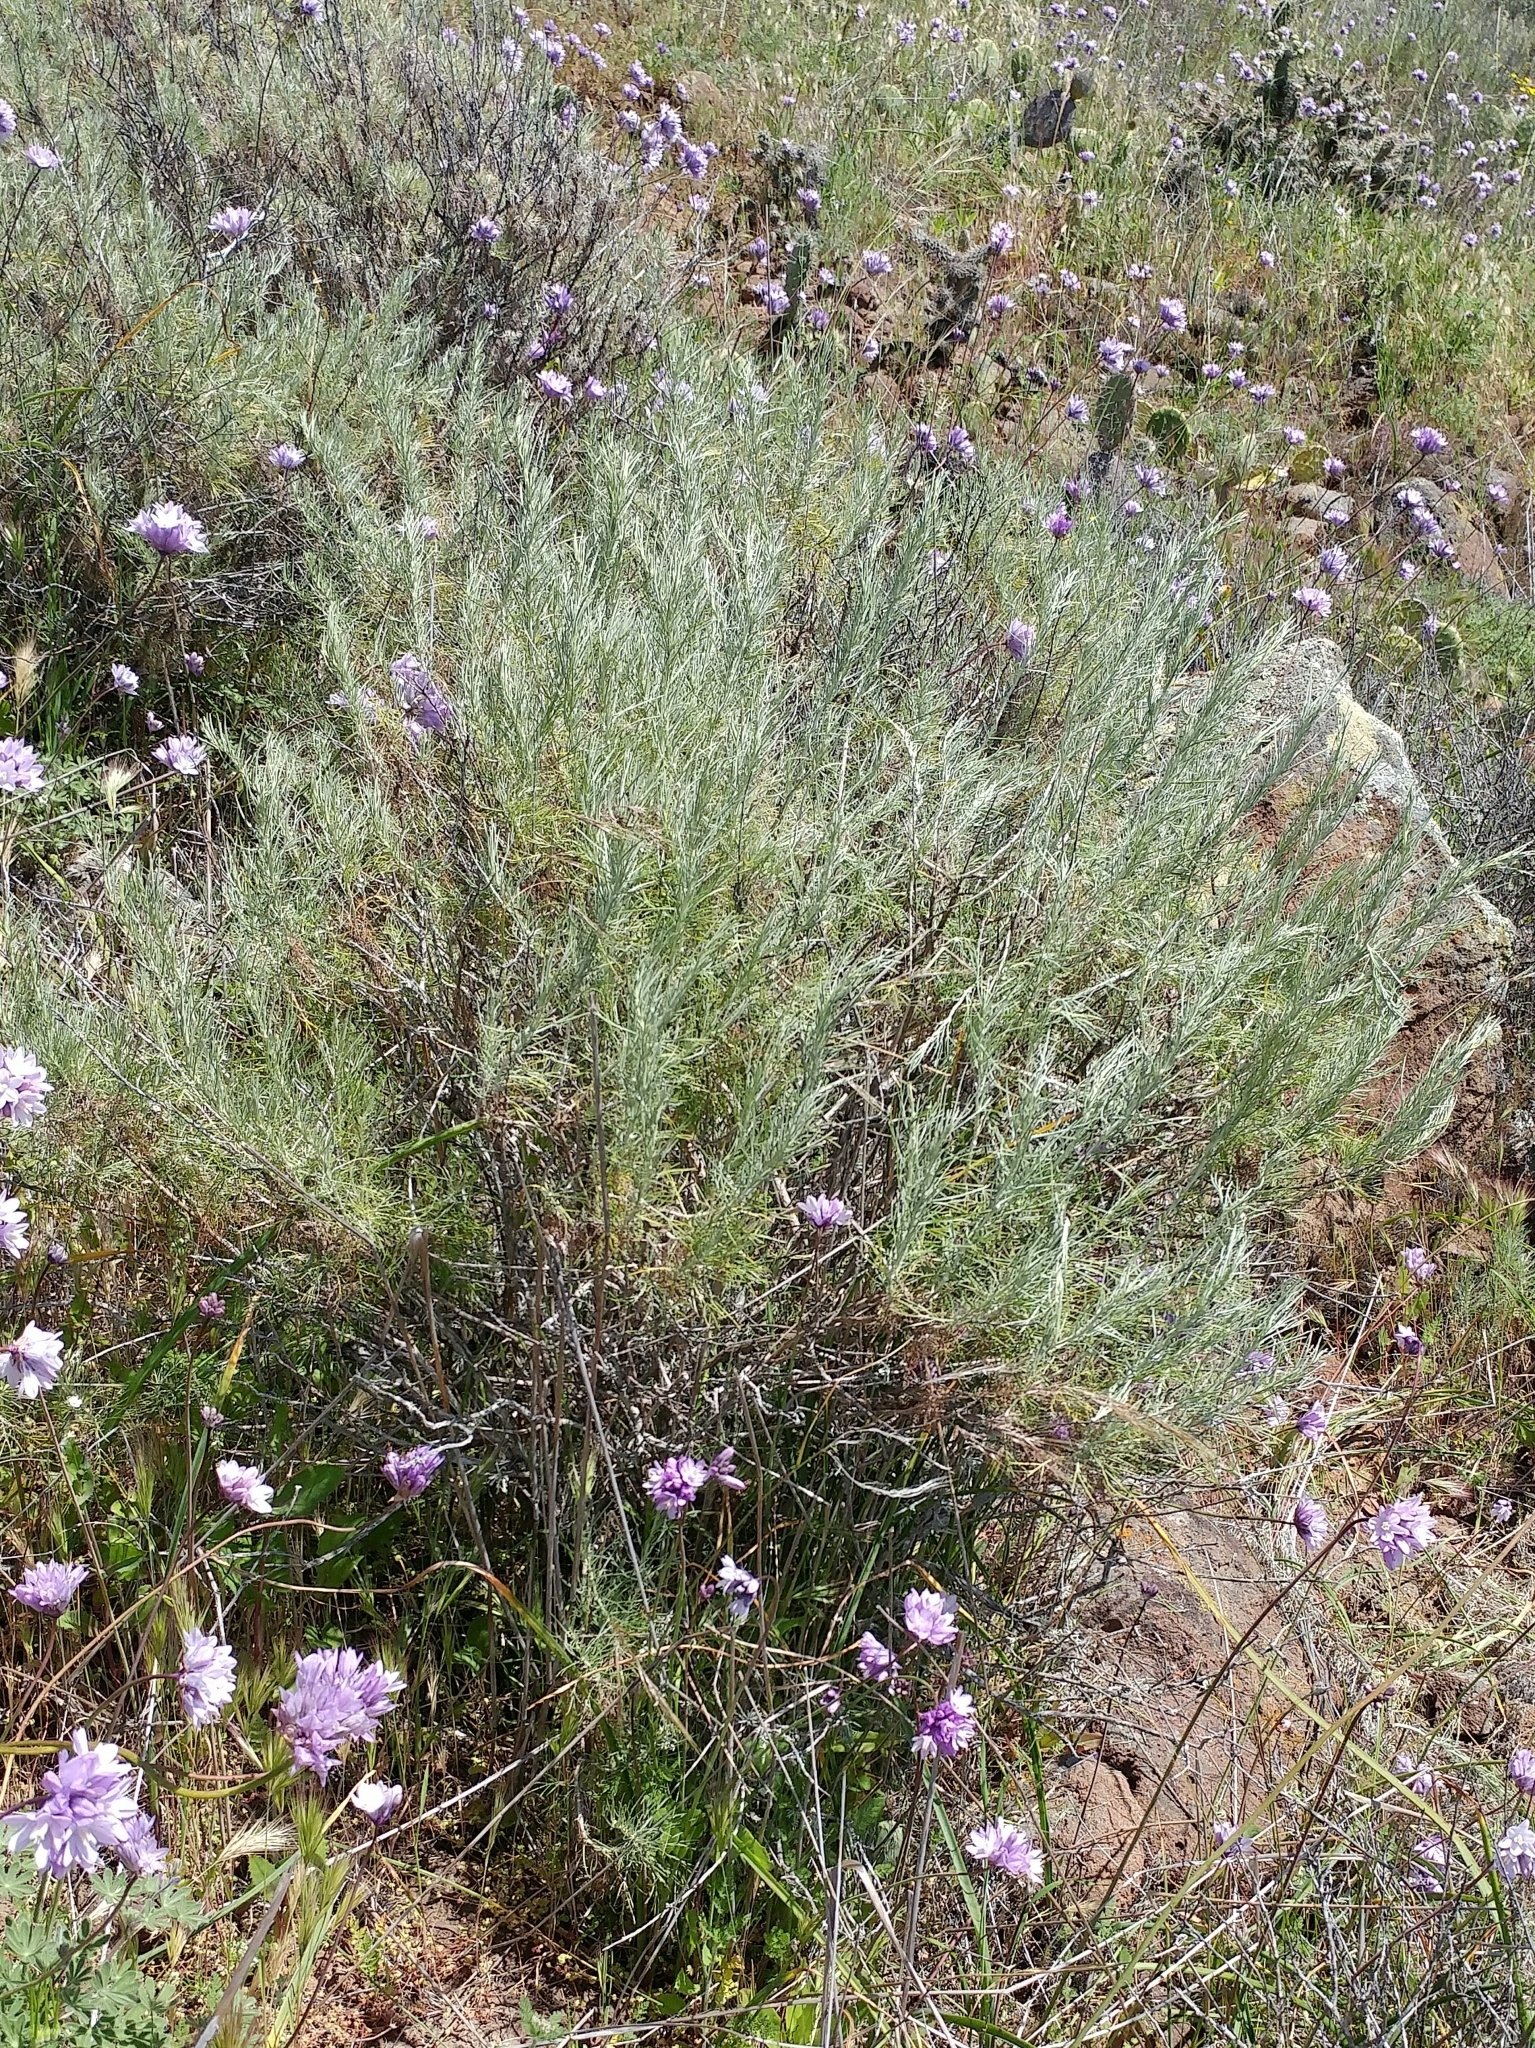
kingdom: Plantae
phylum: Tracheophyta
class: Magnoliopsida
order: Asterales
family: Asteraceae
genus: Artemisia
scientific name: Artemisia californica
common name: California sagebrush
